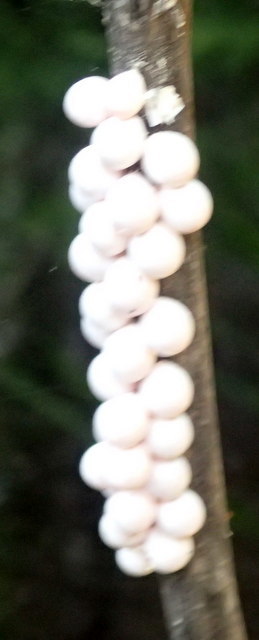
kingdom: Animalia
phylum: Mollusca
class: Gastropoda
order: Architaenioglossa
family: Ampullariidae
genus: Pomacea
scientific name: Pomacea paludosa
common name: Florida applesnail
